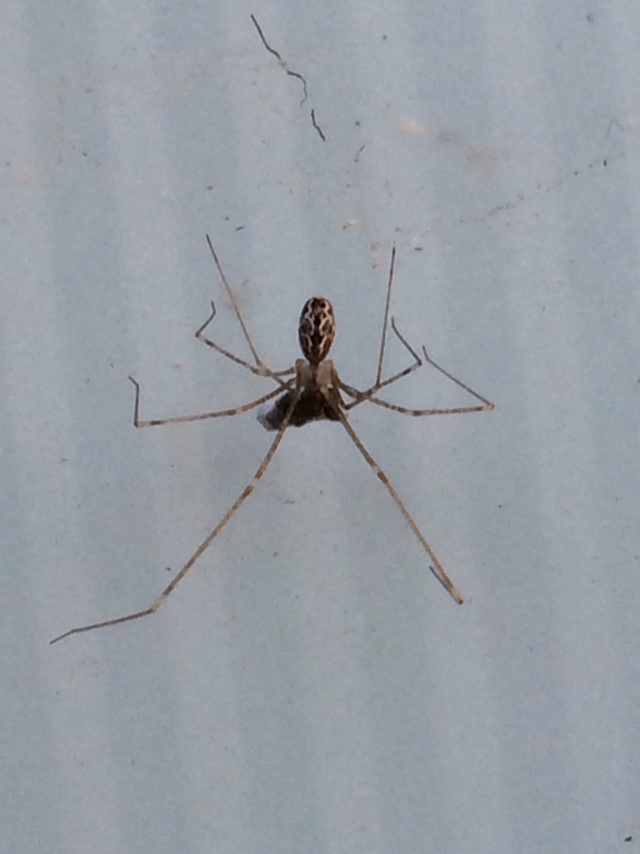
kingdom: Animalia
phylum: Arthropoda
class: Arachnida
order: Araneae
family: Pholcidae
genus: Holocnemus
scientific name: Holocnemus pluchei
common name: Marbled cellar spider
